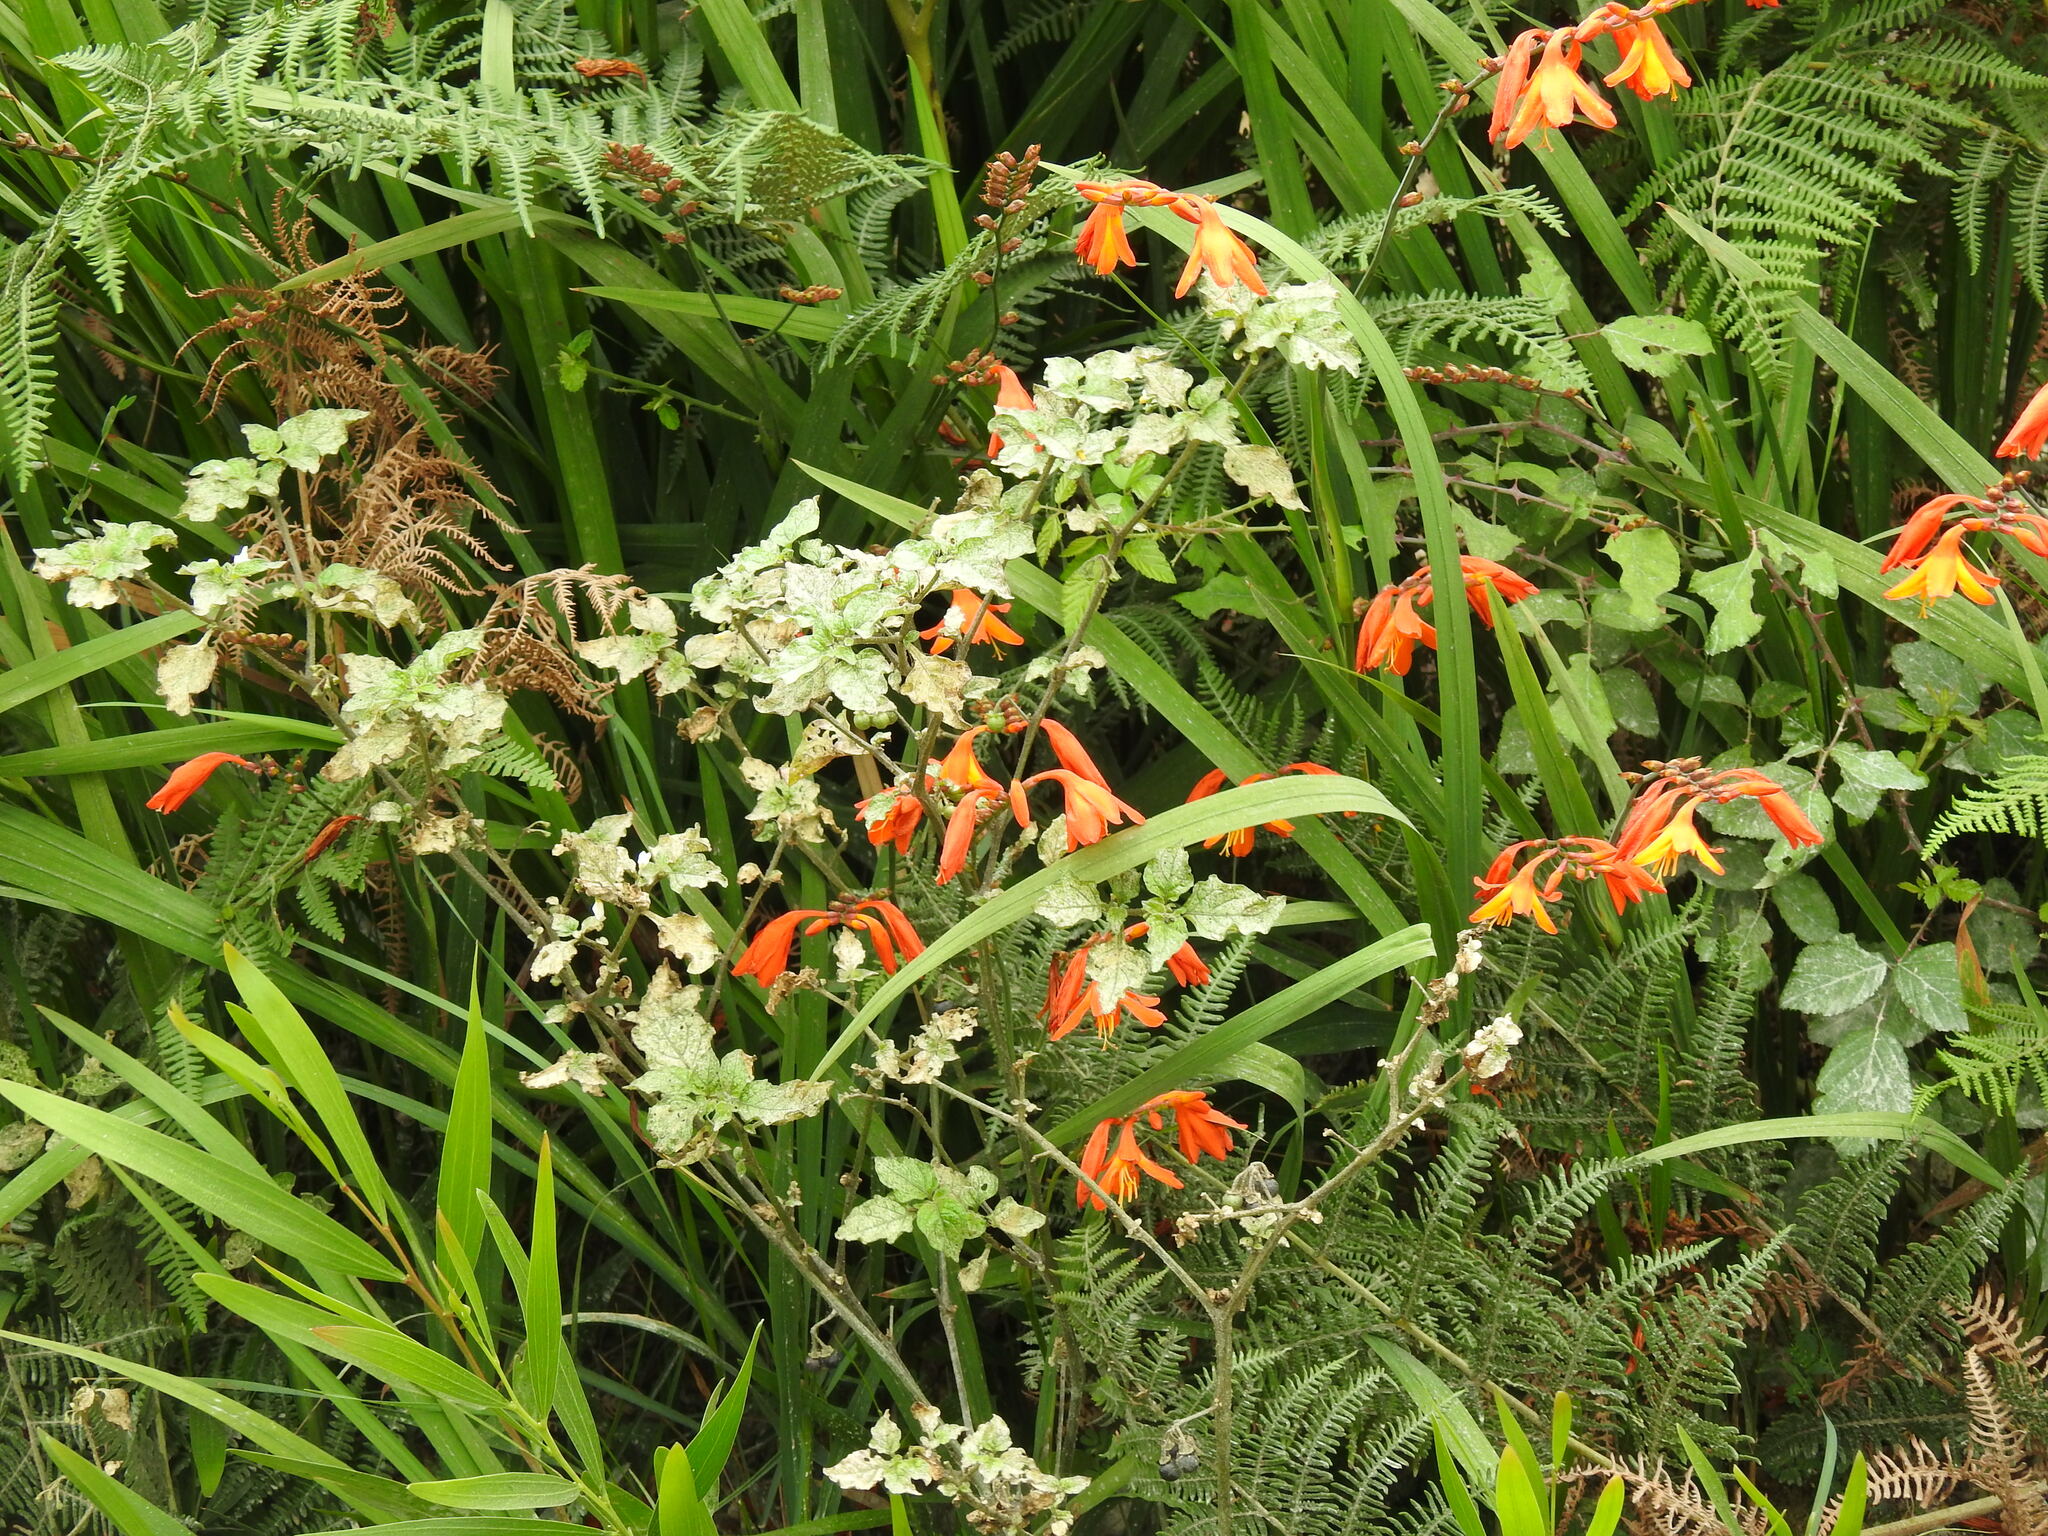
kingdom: Plantae
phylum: Tracheophyta
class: Liliopsida
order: Asparagales
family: Iridaceae
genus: Crocosmia
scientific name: Crocosmia crocosmiiflora
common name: Montbretia
